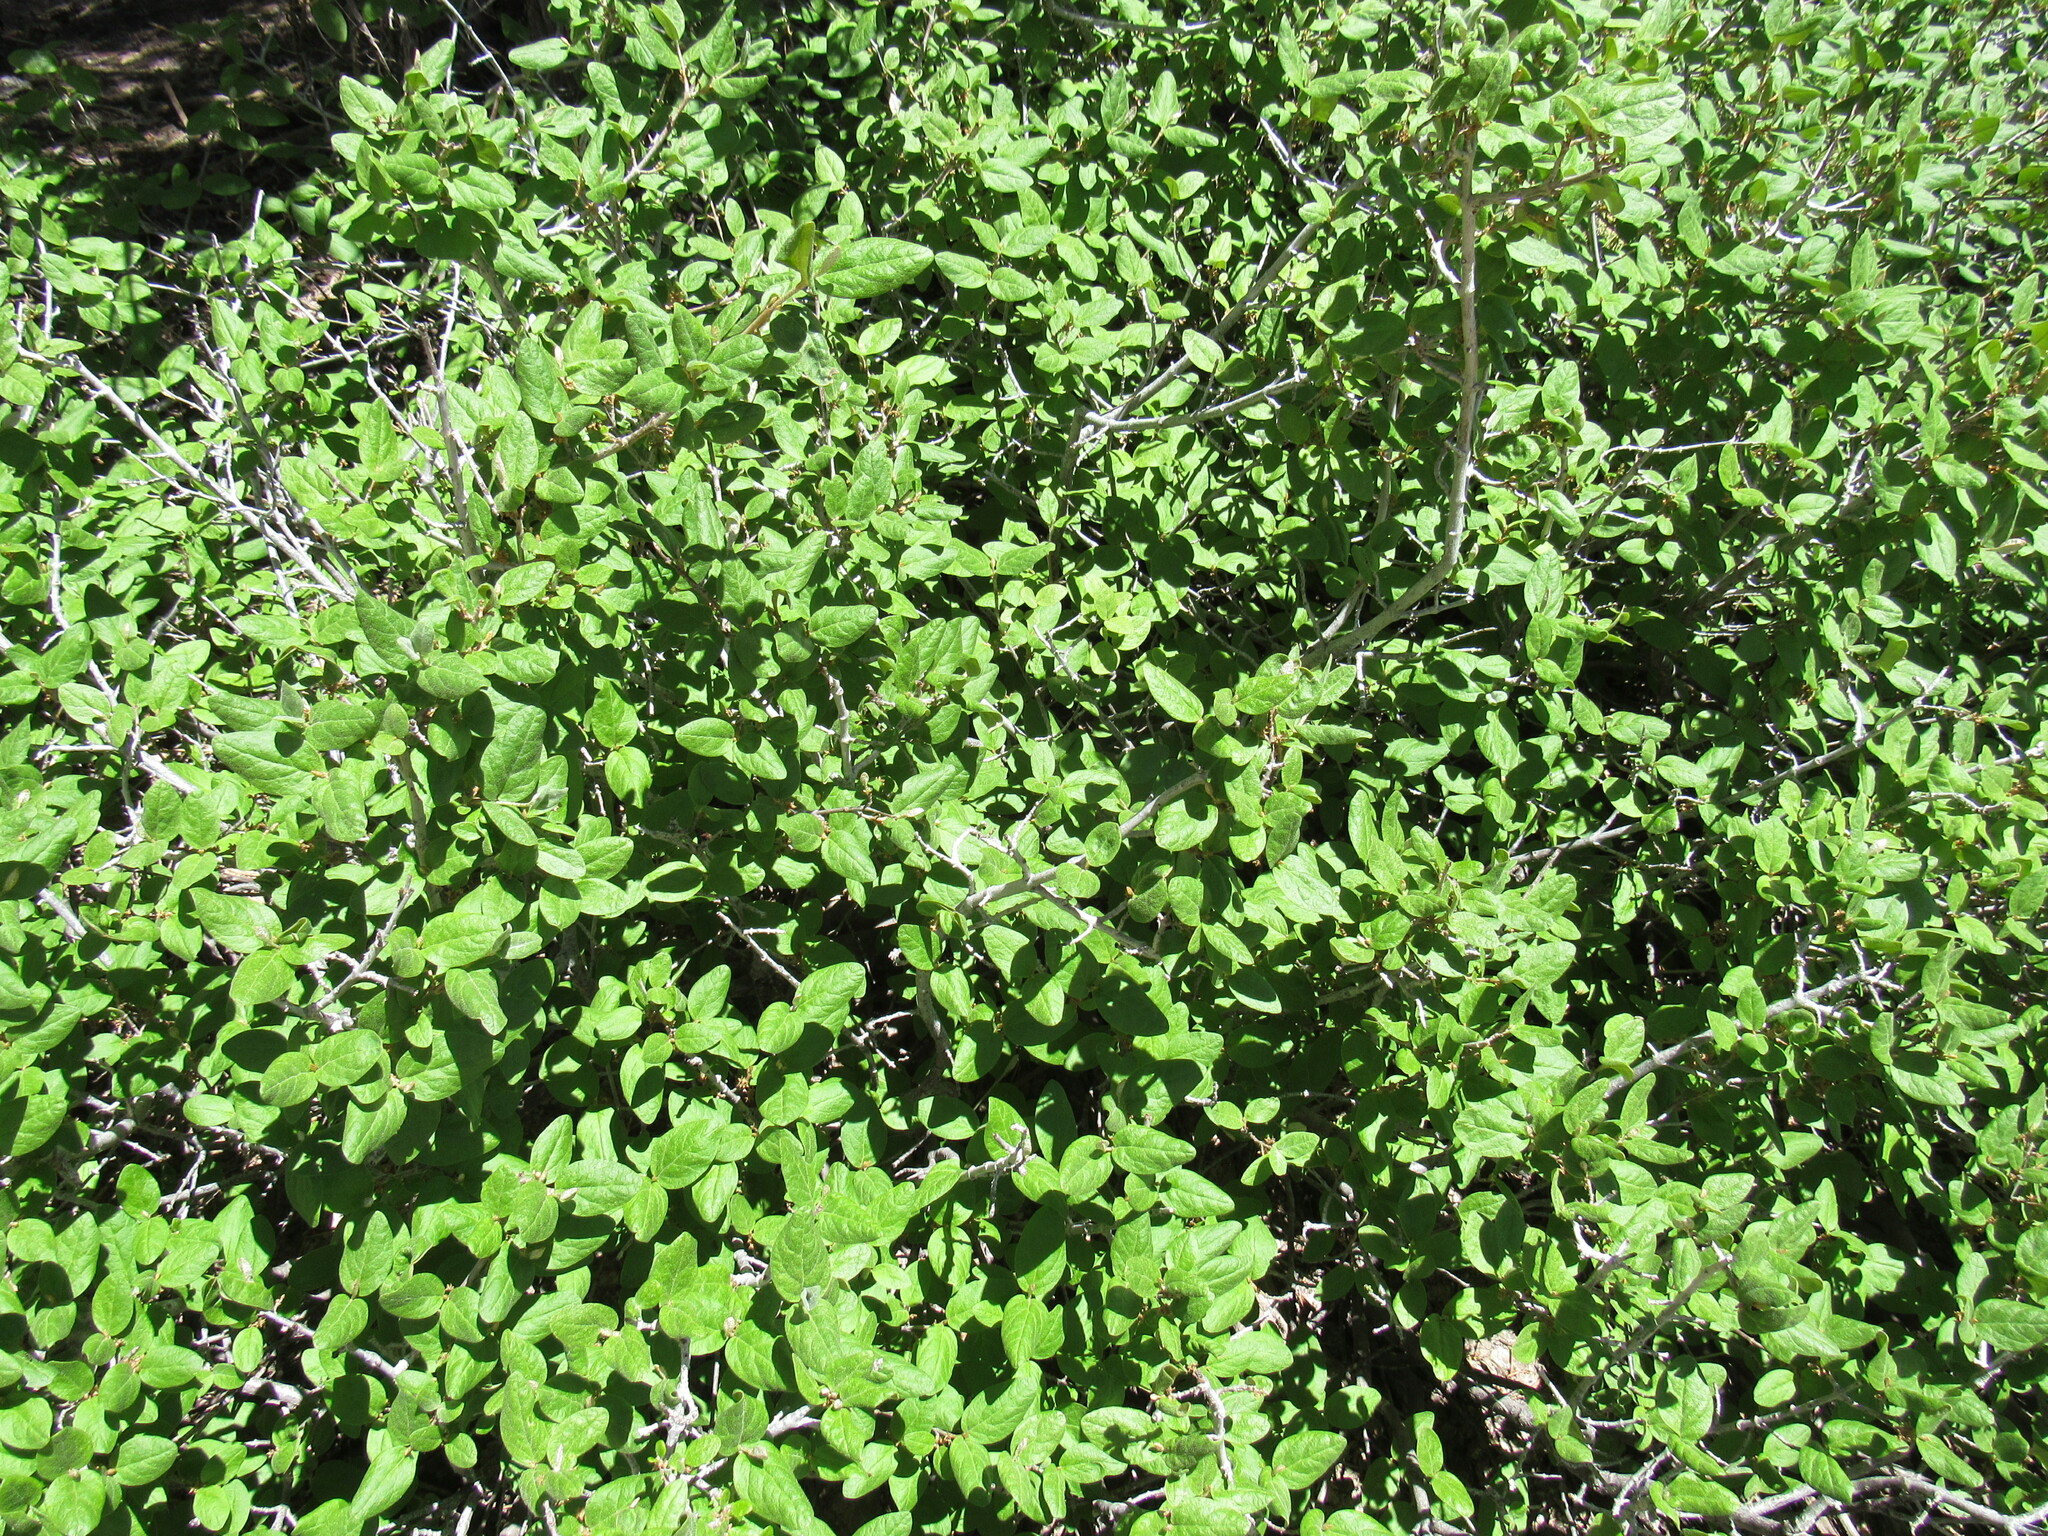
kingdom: Plantae
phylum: Tracheophyta
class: Magnoliopsida
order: Rosales
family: Elaeagnaceae
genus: Shepherdia
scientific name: Shepherdia canadensis
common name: Soapberry
